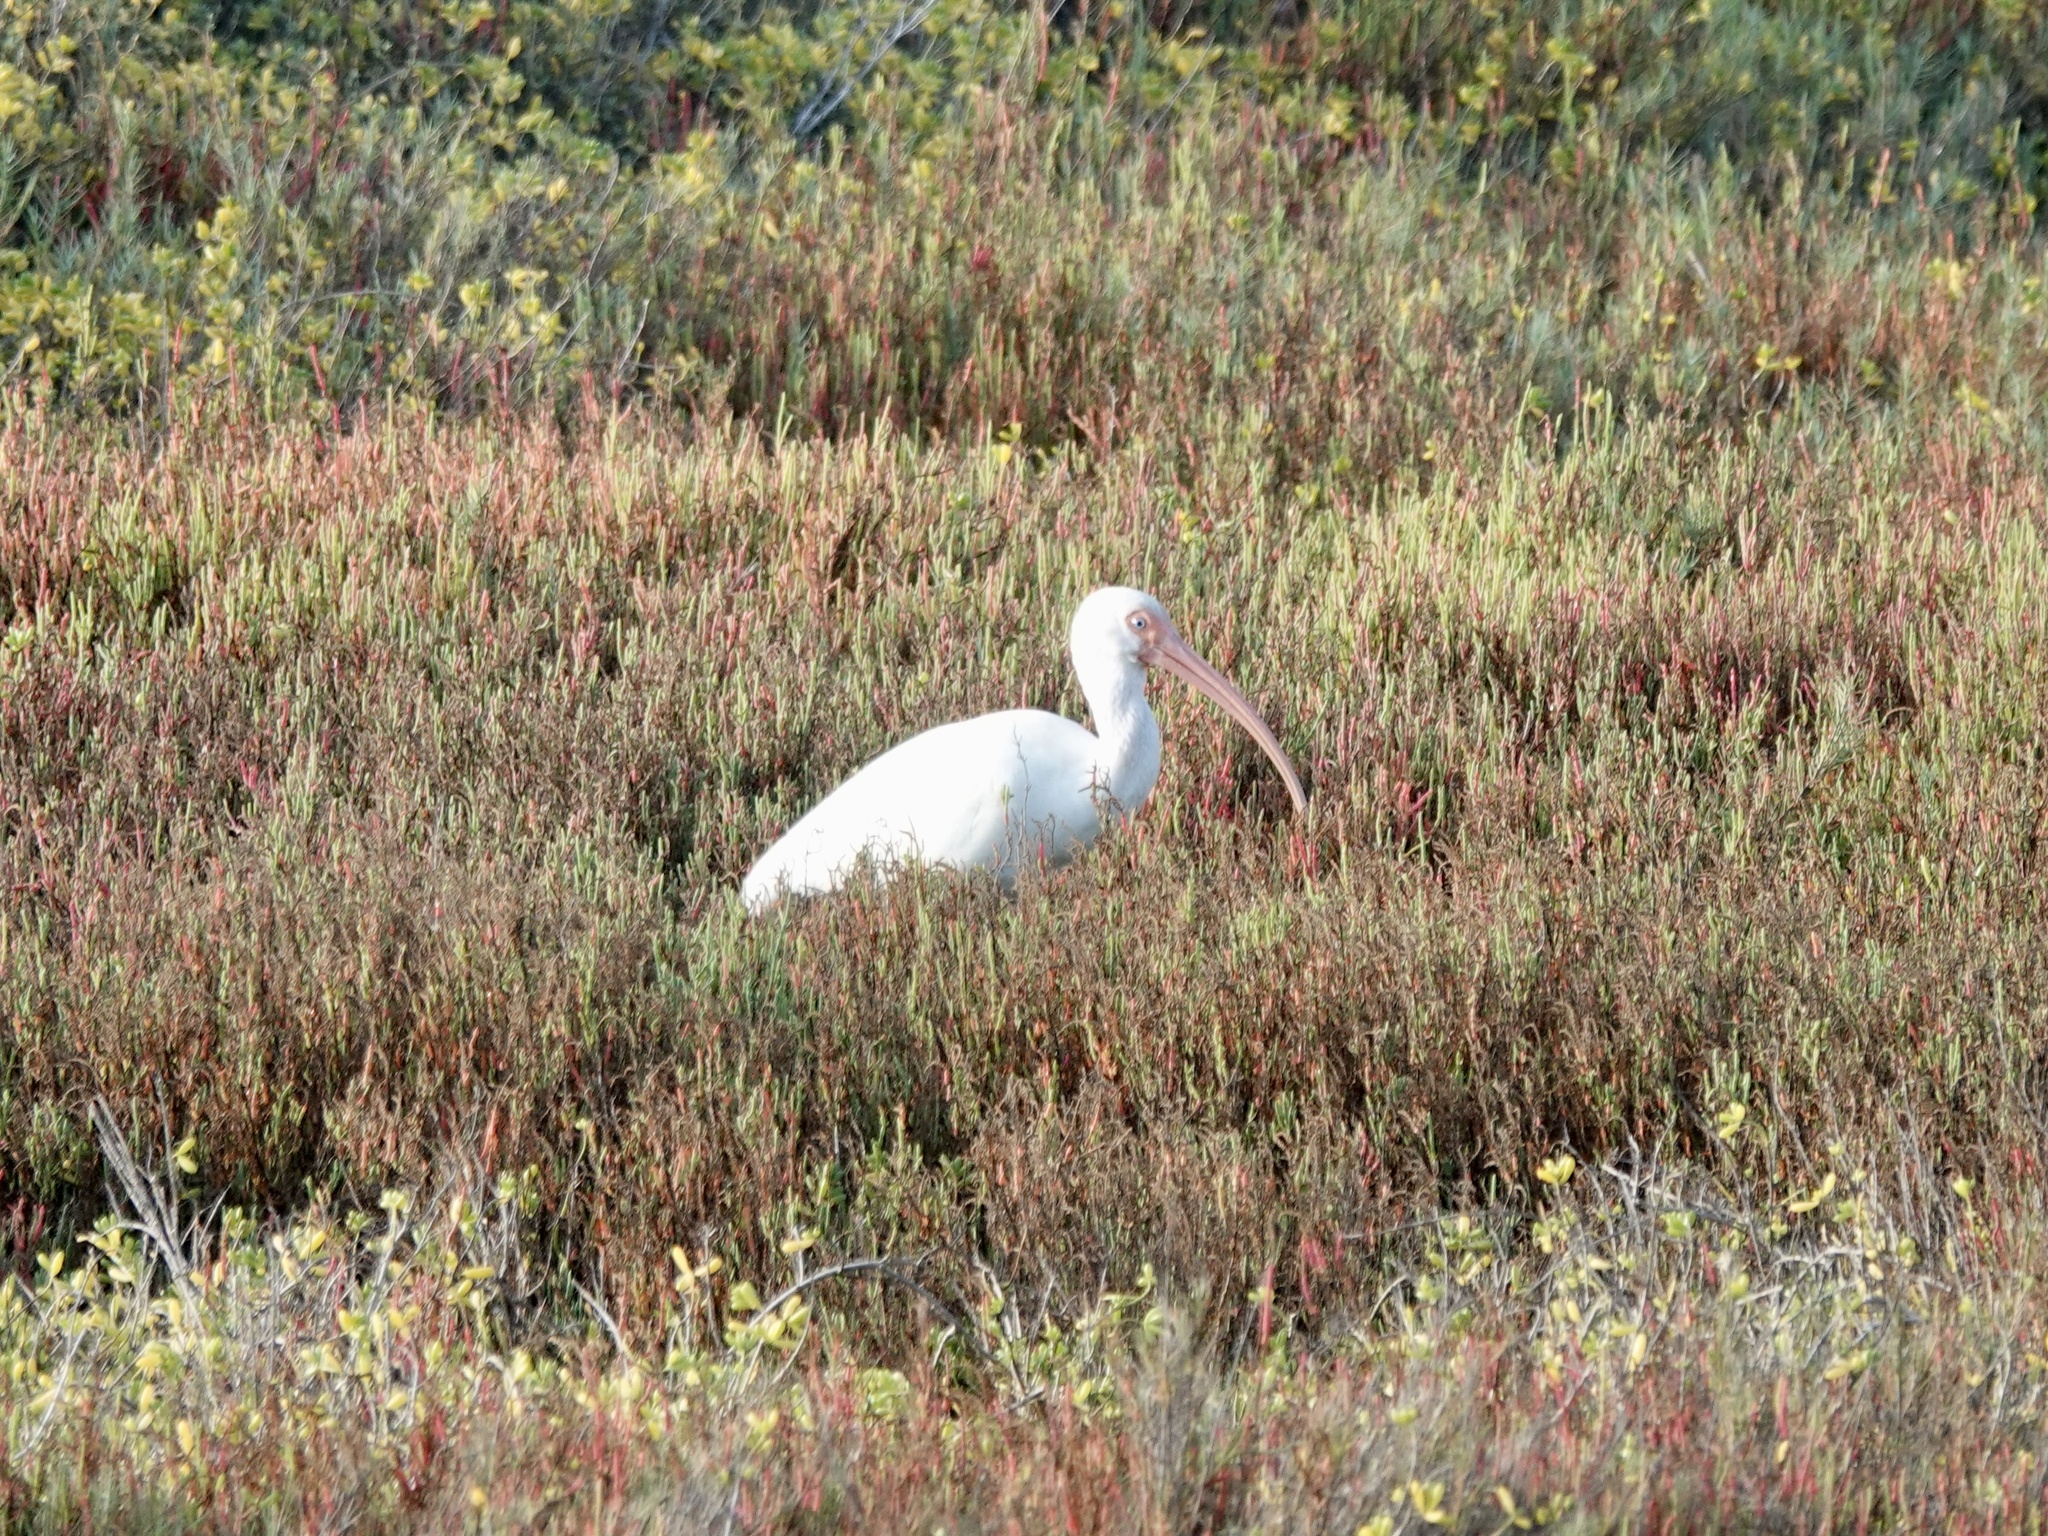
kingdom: Animalia
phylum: Chordata
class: Aves
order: Pelecaniformes
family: Threskiornithidae
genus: Eudocimus
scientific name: Eudocimus albus
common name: White ibis
